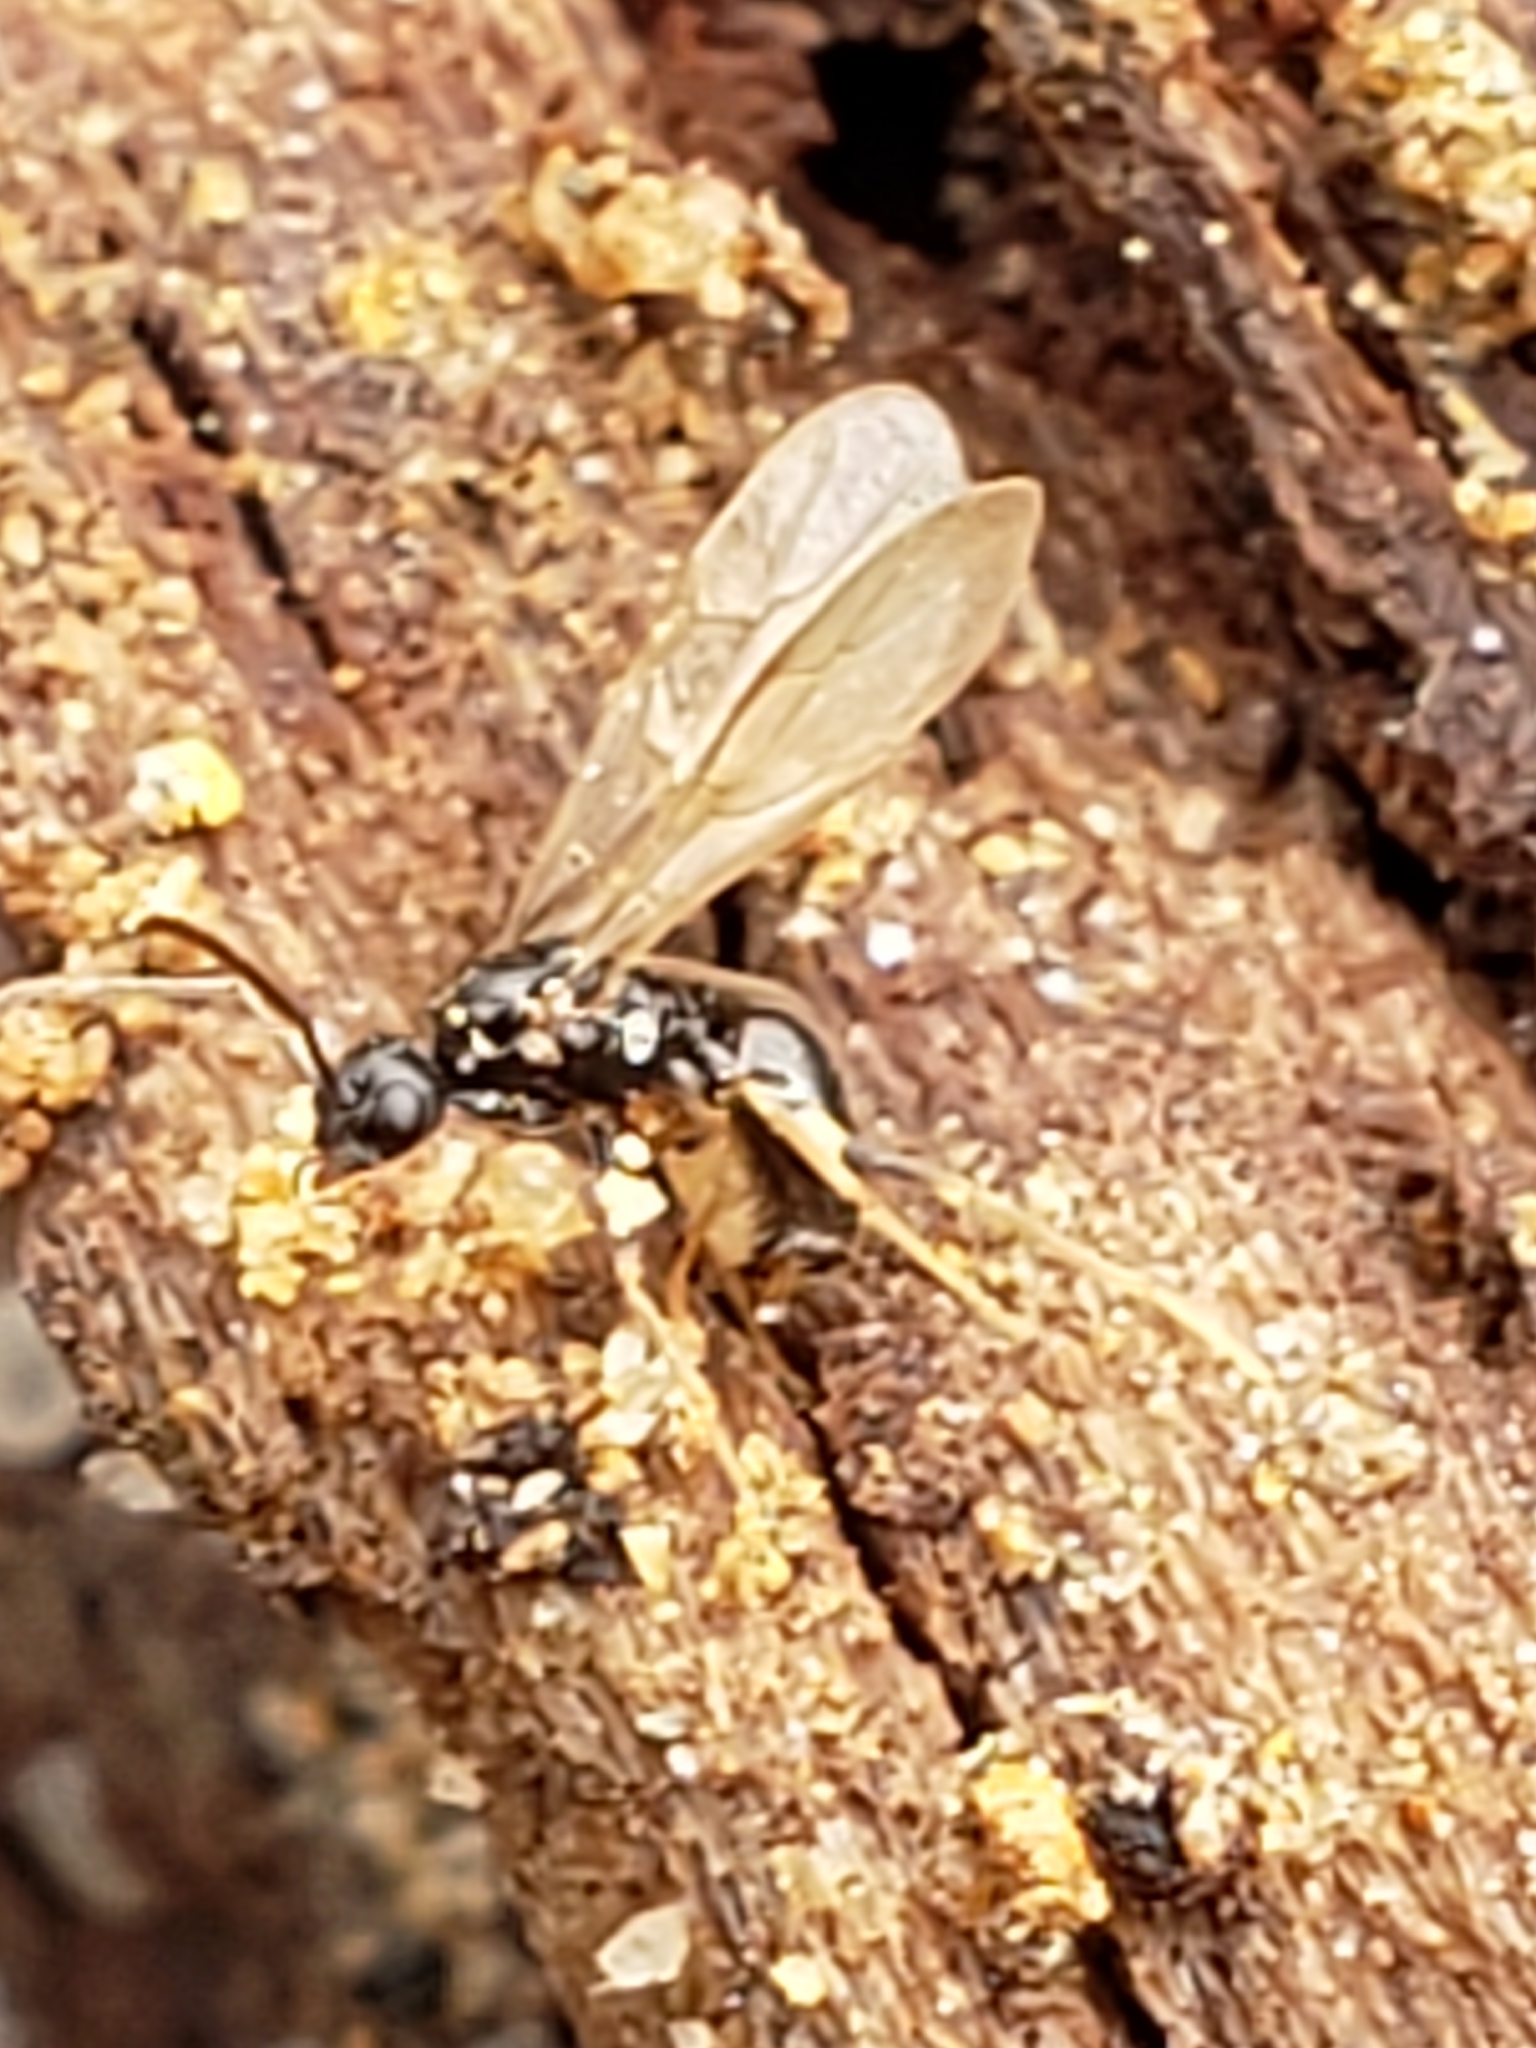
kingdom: Animalia
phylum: Arthropoda
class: Insecta
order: Hymenoptera
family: Formicidae
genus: Prenolepis
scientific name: Prenolepis imparis
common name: Small honey ant
